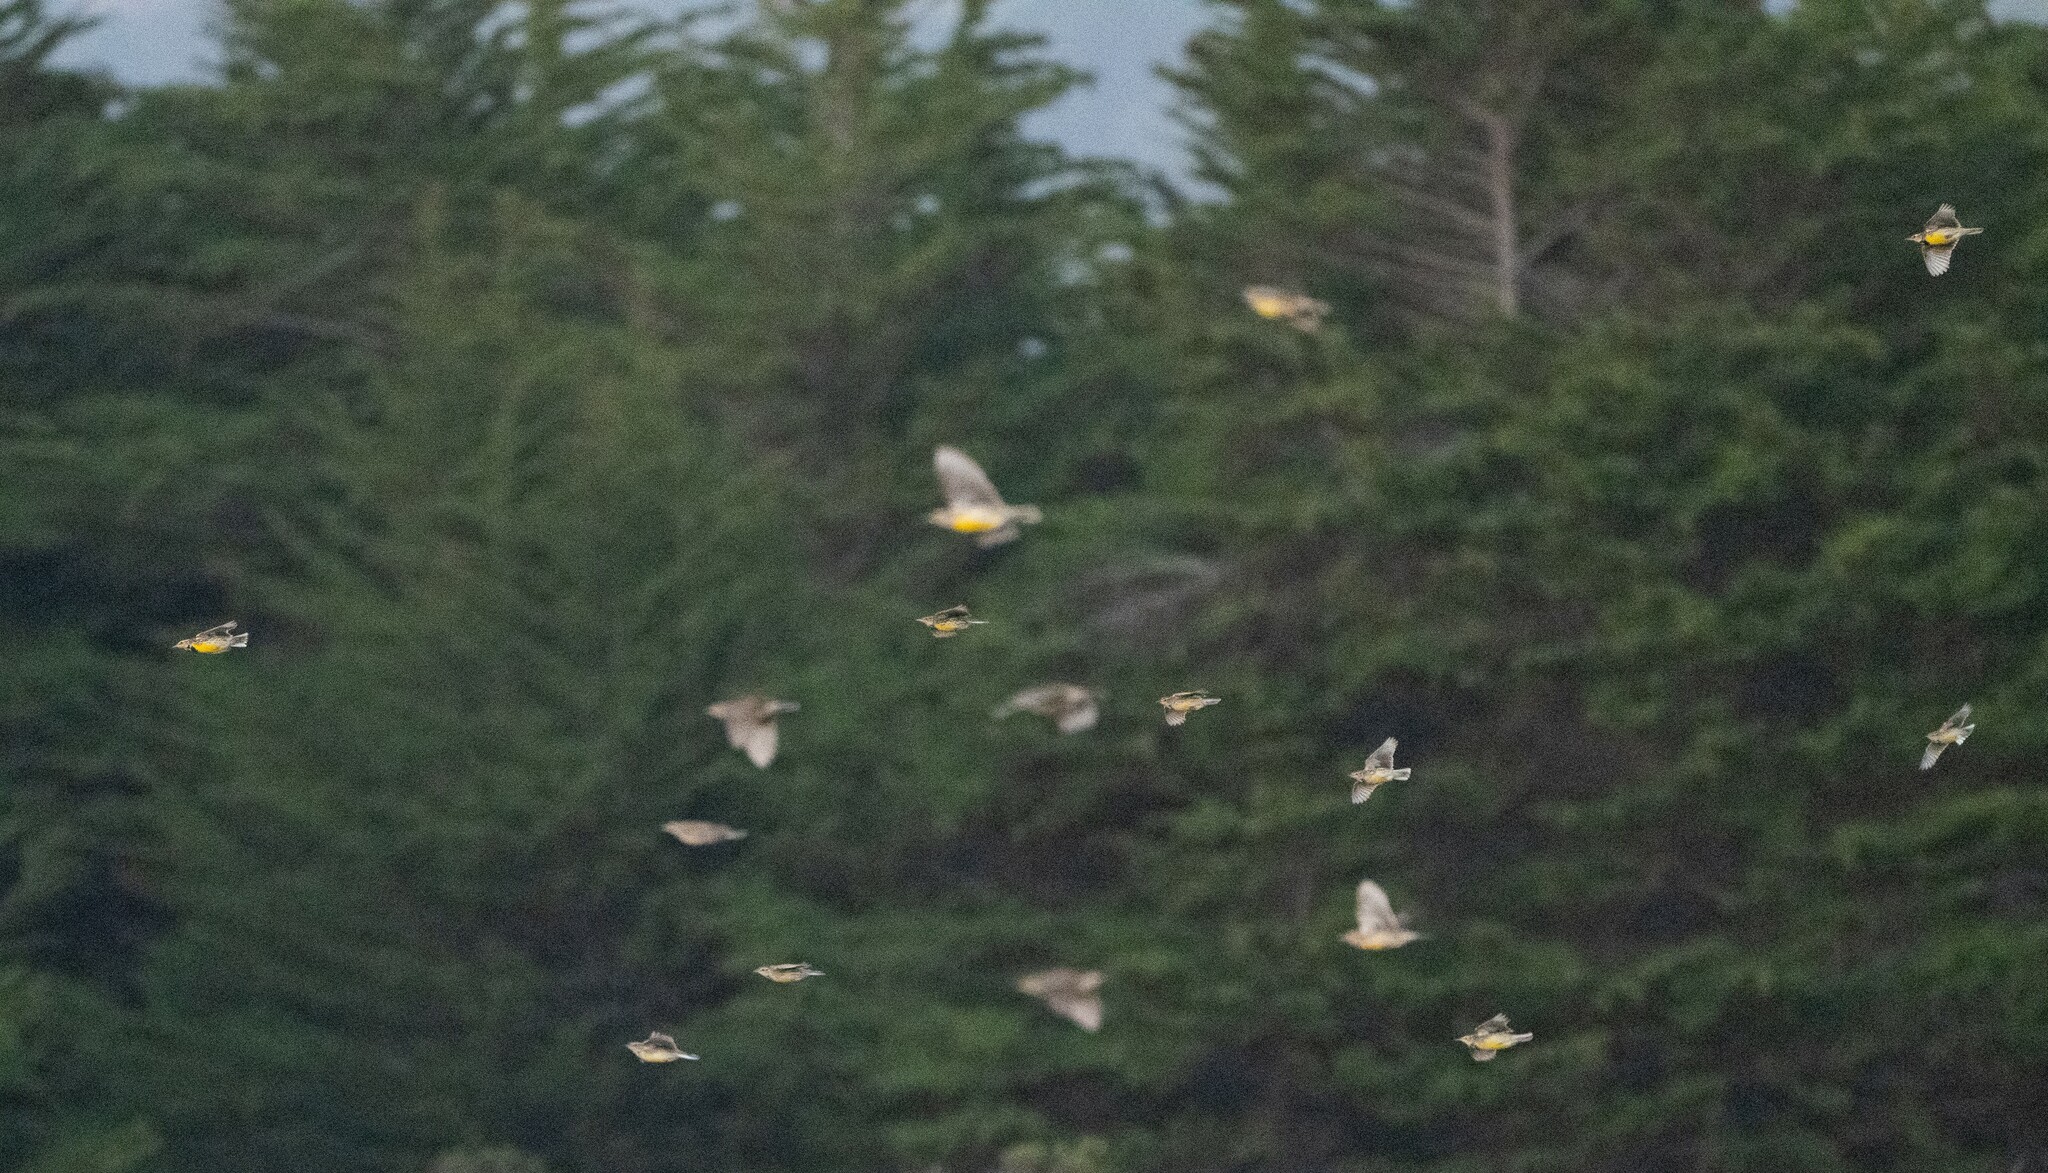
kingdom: Animalia
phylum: Chordata
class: Aves
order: Passeriformes
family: Icteridae
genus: Sturnella
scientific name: Sturnella neglecta
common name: Western meadowlark
